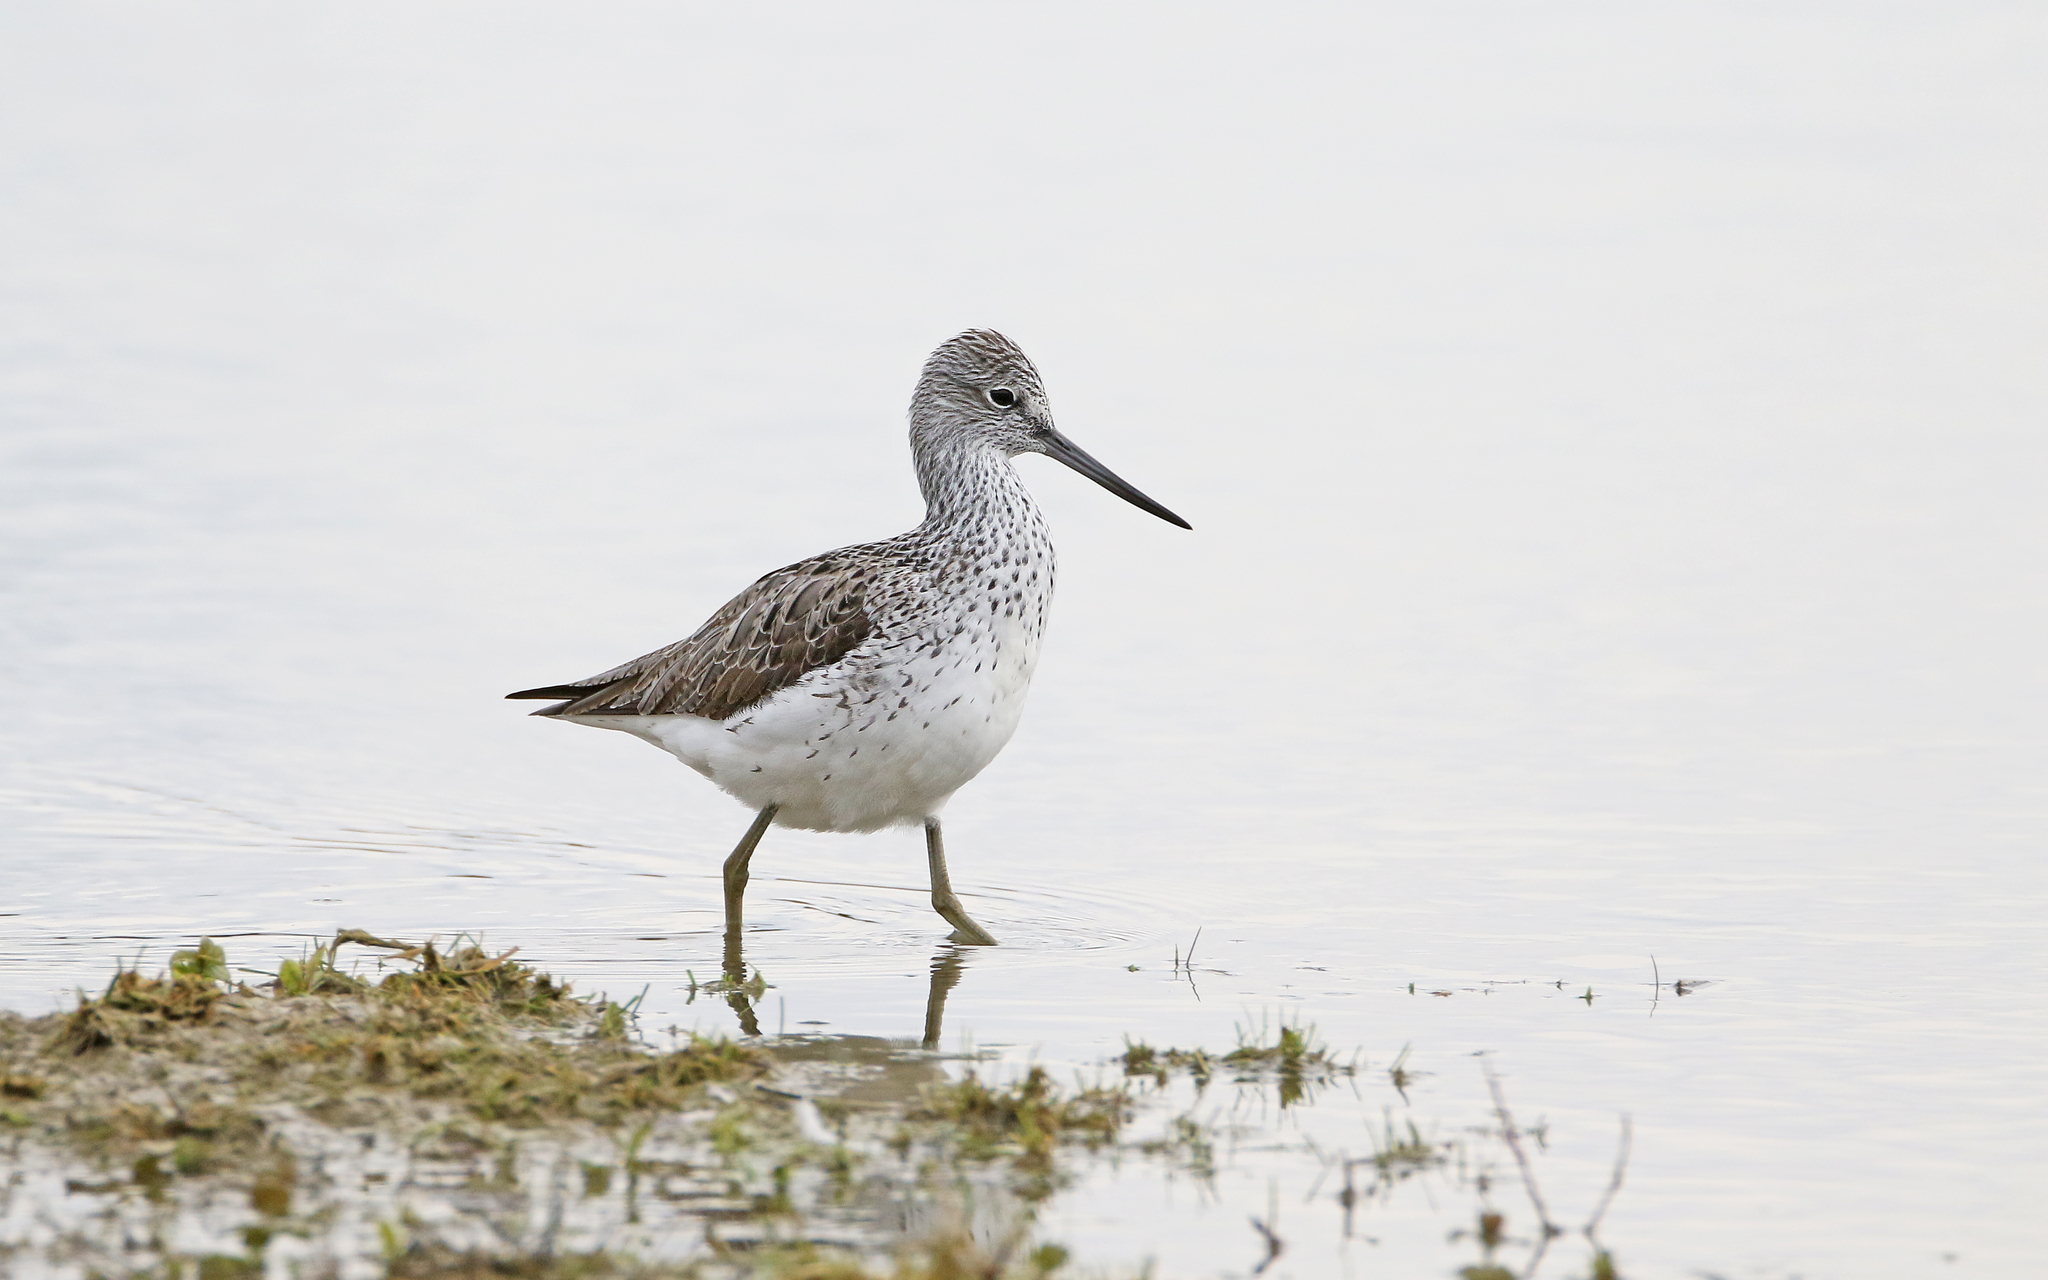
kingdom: Animalia
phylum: Chordata
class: Aves
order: Charadriiformes
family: Scolopacidae
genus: Tringa
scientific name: Tringa nebularia
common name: Common greenshank
